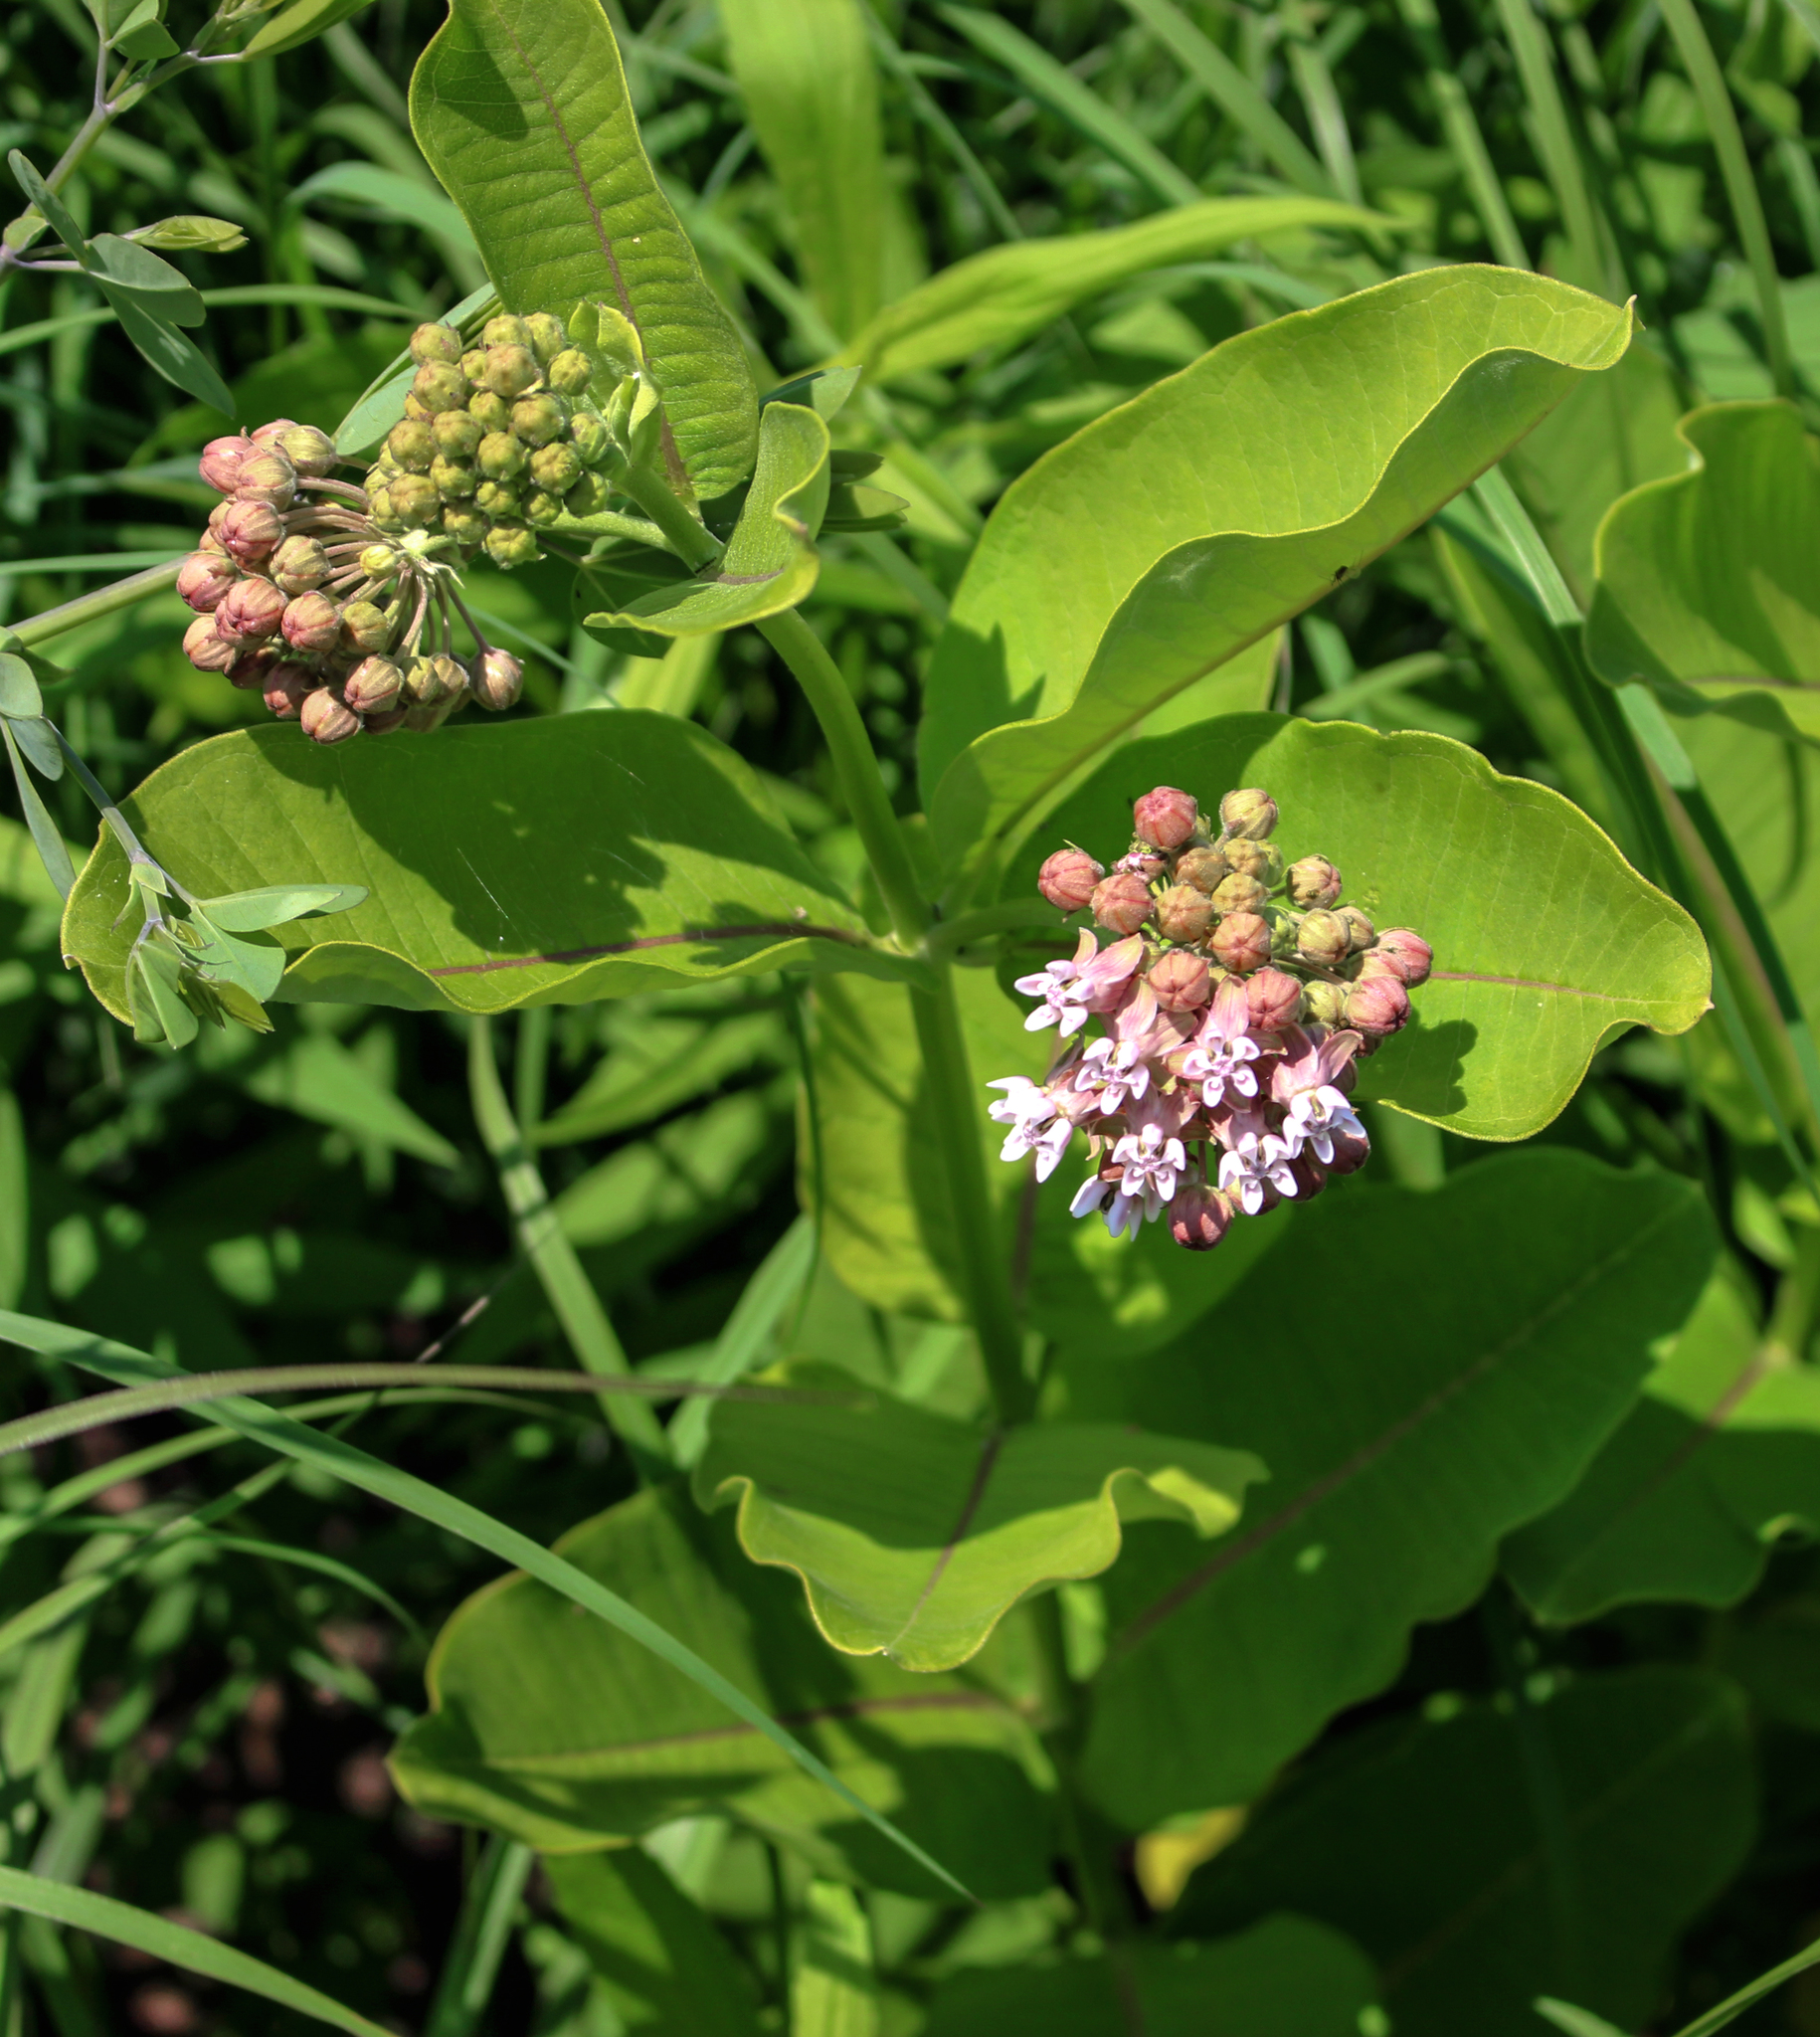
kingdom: Plantae
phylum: Tracheophyta
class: Magnoliopsida
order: Gentianales
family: Apocynaceae
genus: Asclepias
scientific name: Asclepias syriaca
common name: Common milkweed
